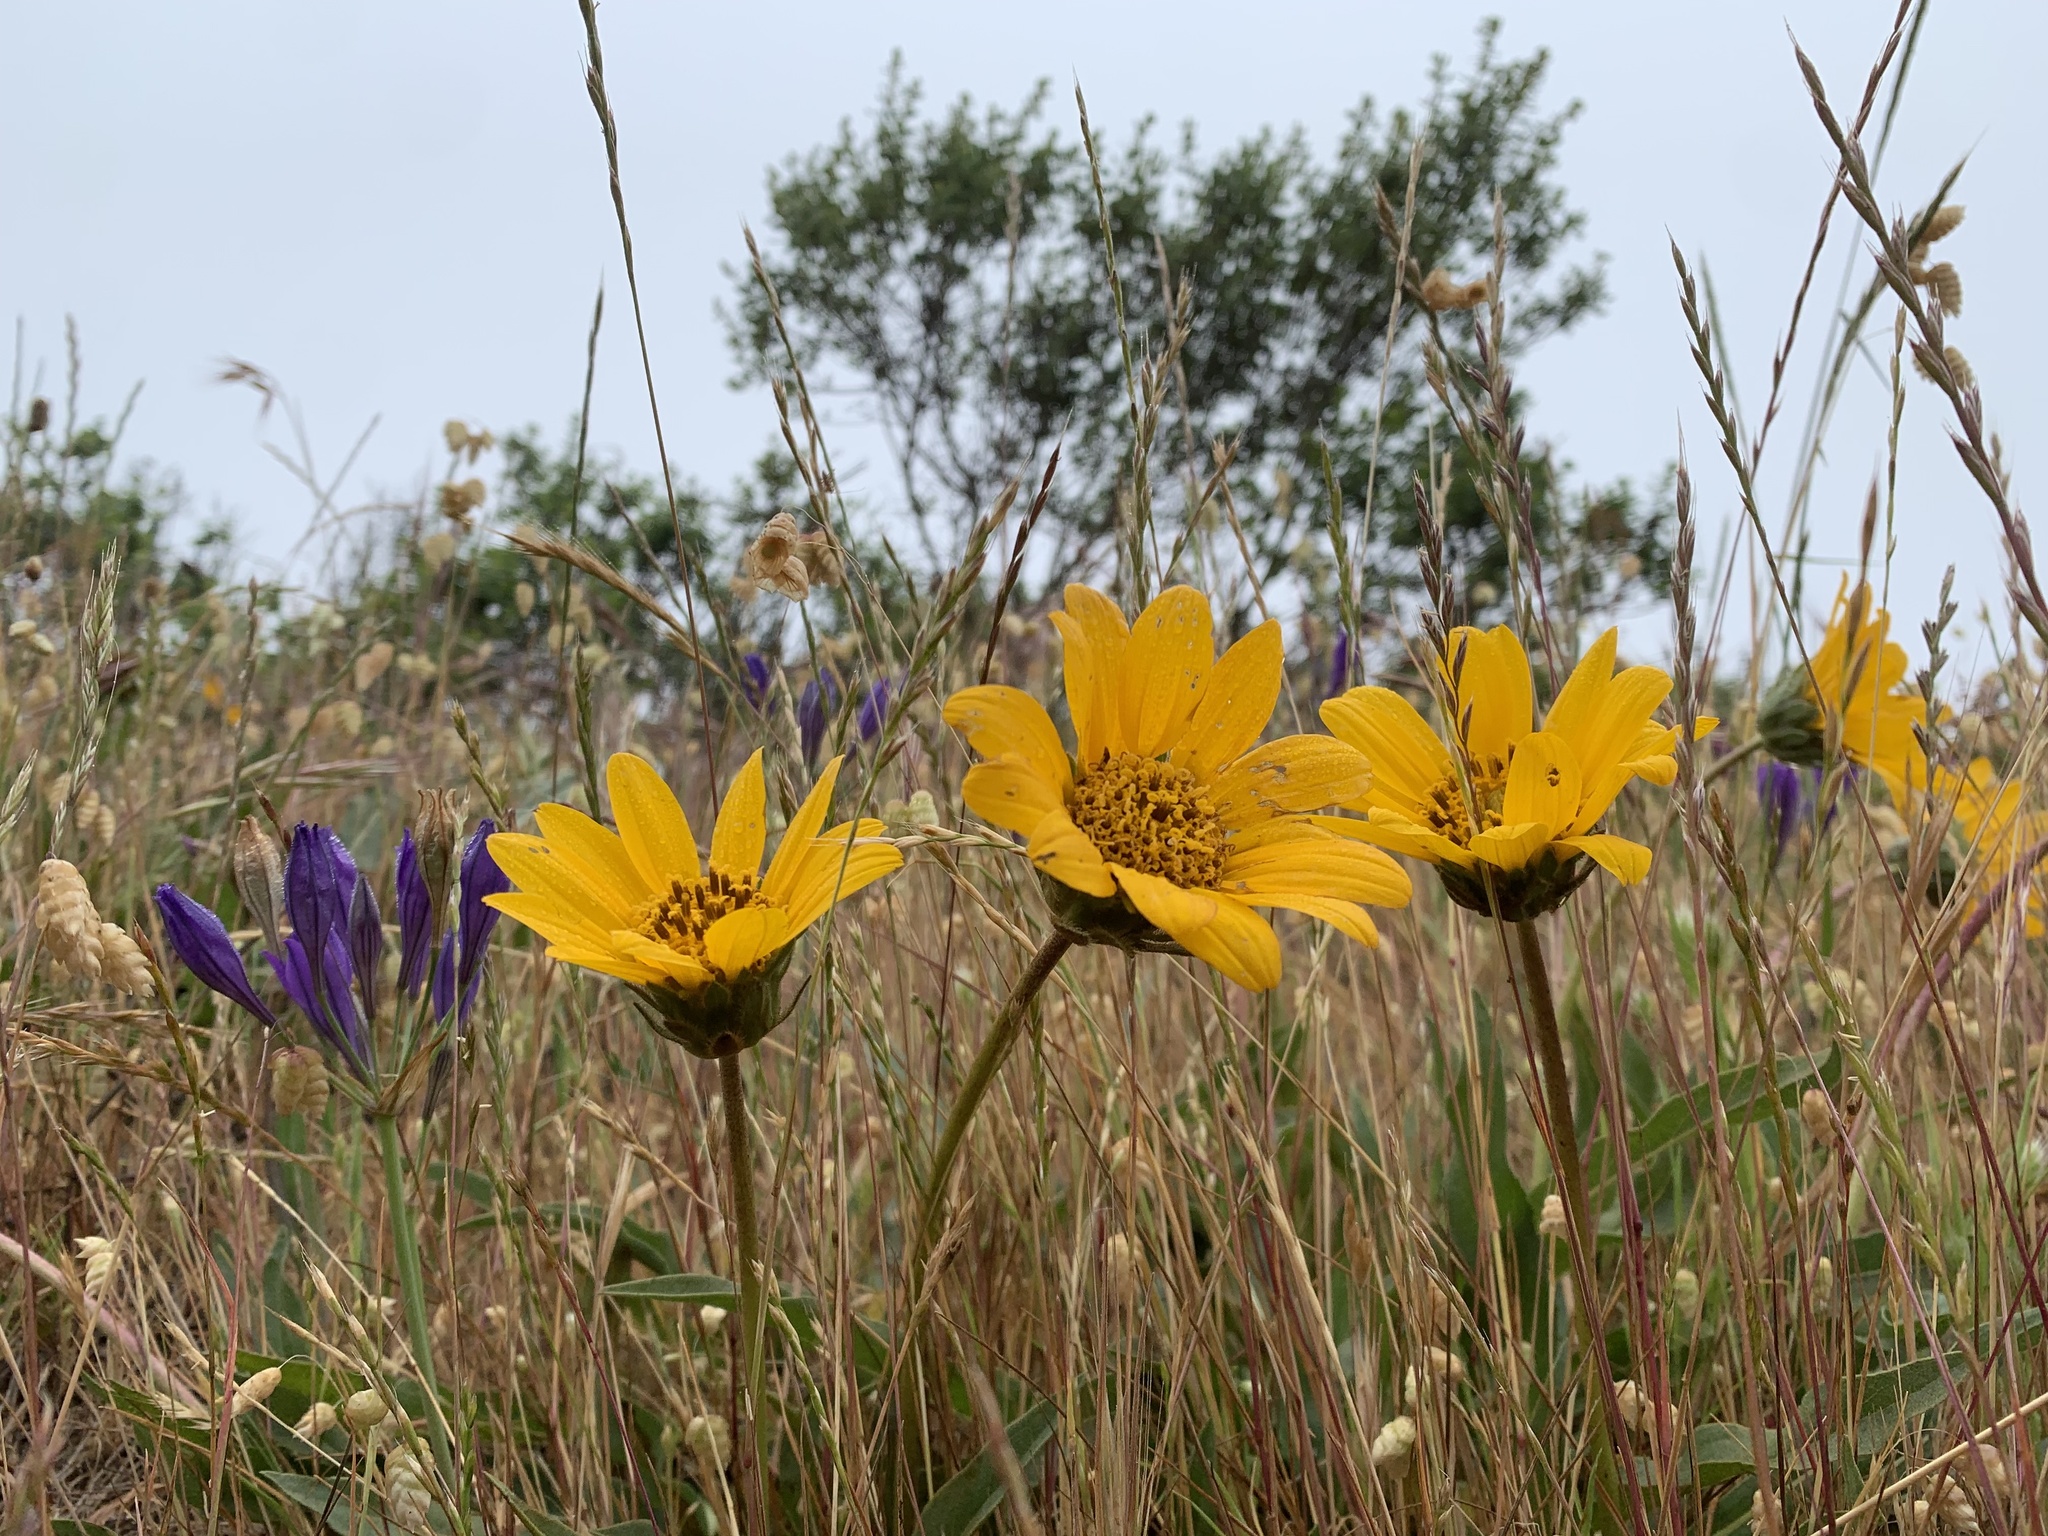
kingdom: Plantae
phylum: Tracheophyta
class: Magnoliopsida
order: Asterales
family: Asteraceae
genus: Wyethia
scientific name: Wyethia angustifolia
